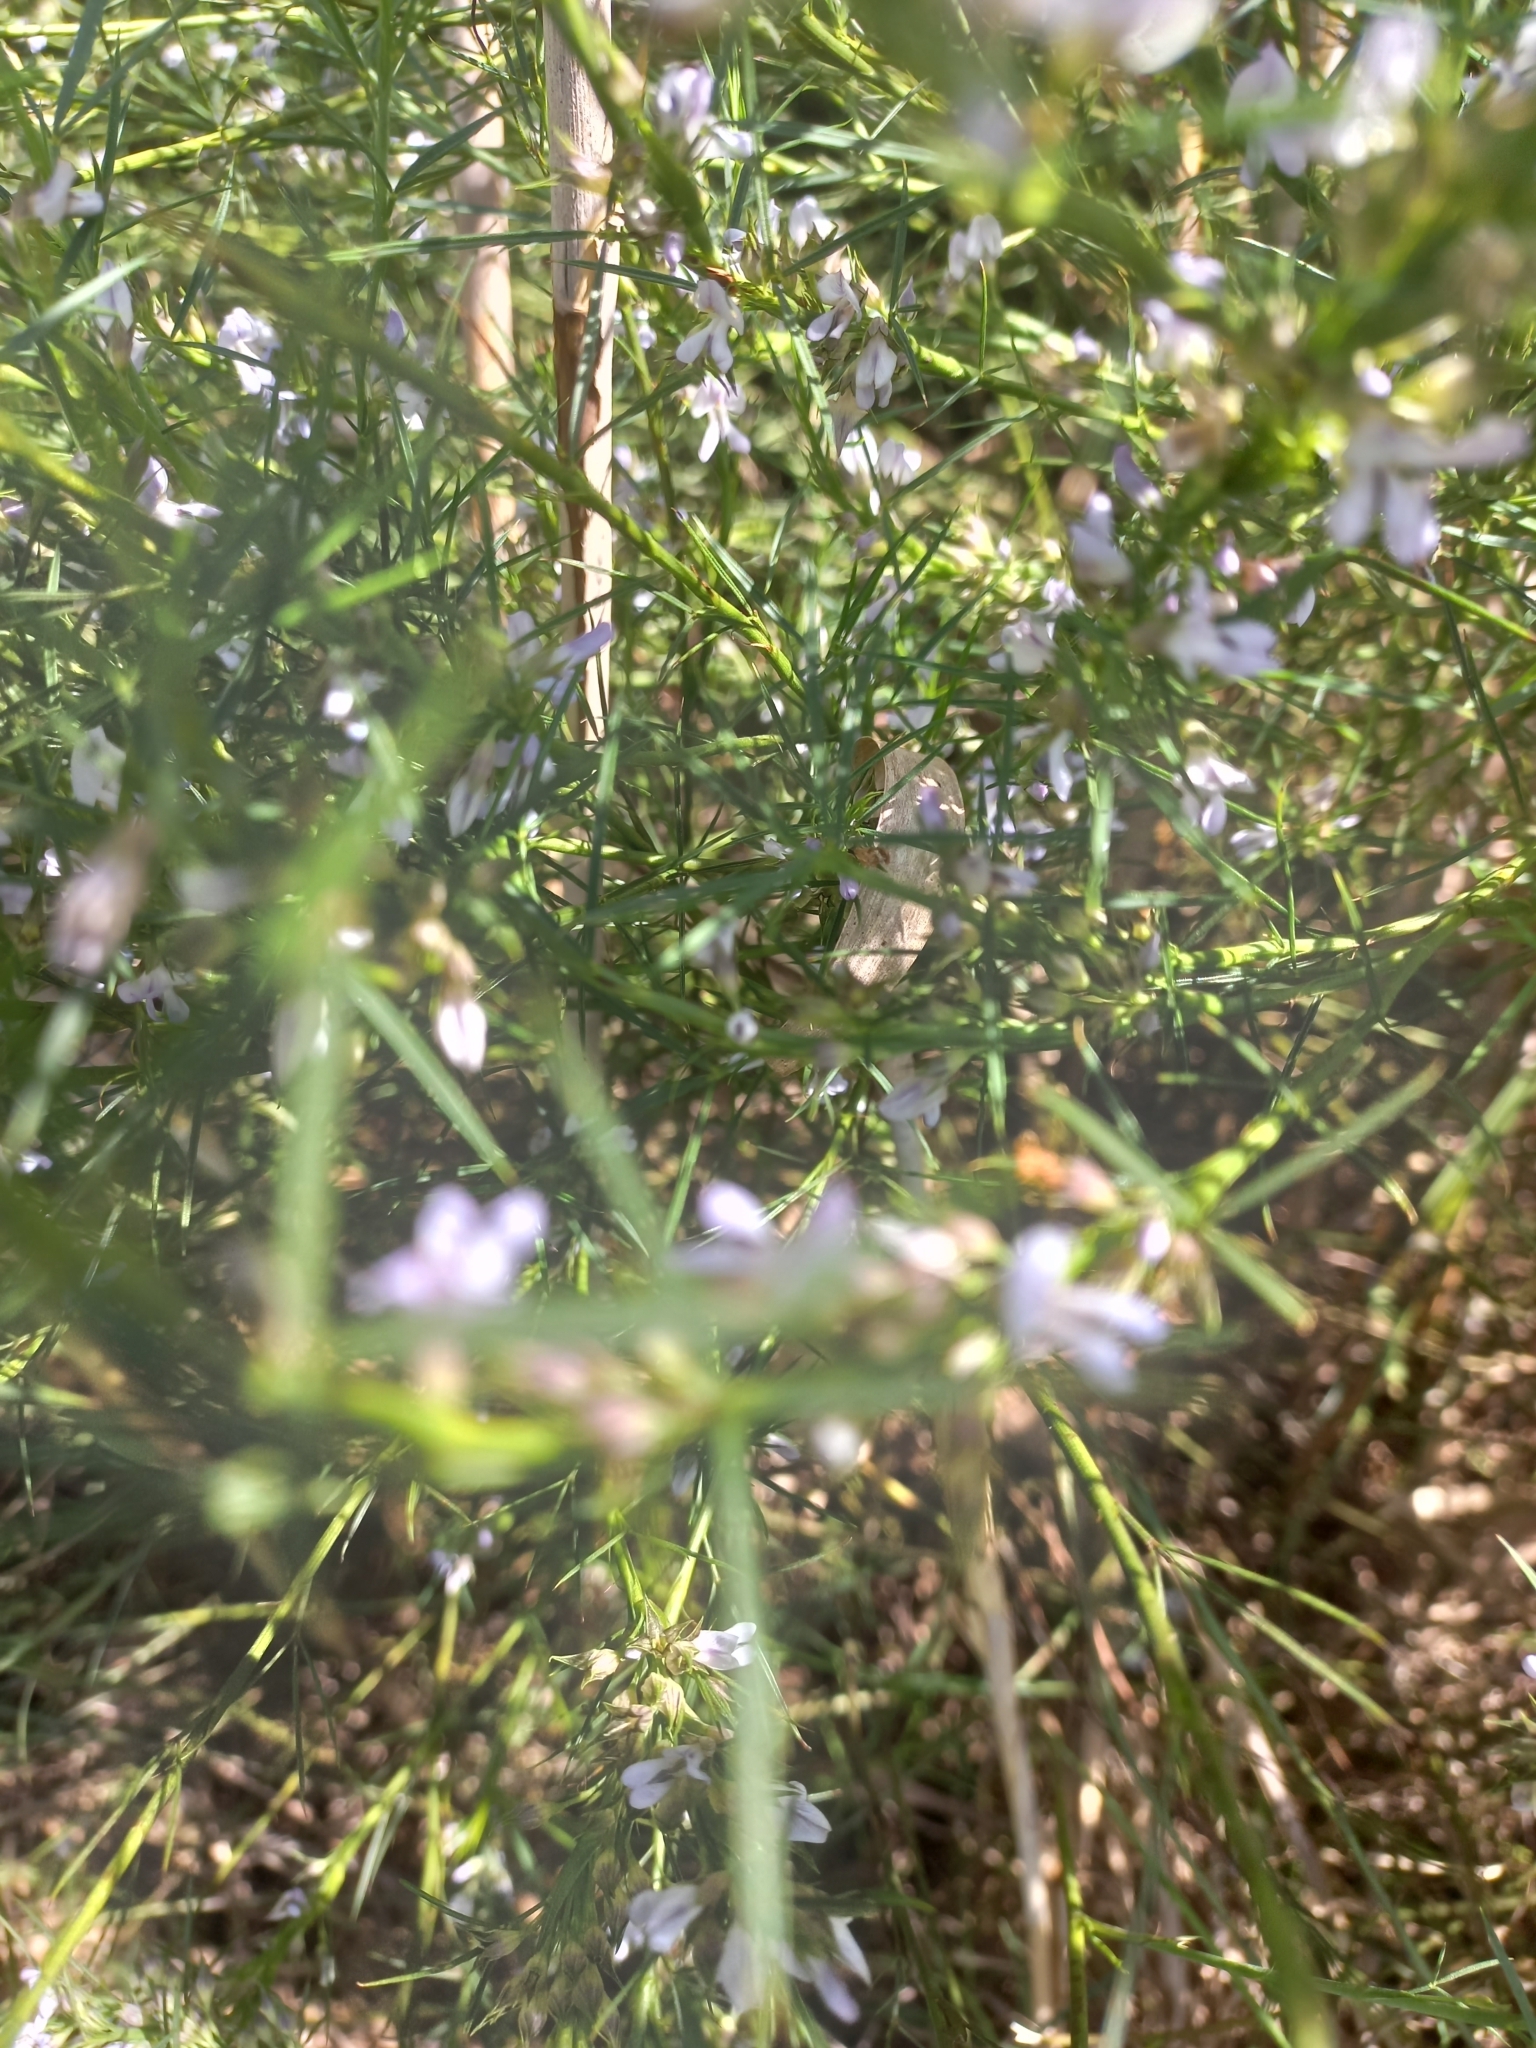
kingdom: Plantae
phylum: Tracheophyta
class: Magnoliopsida
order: Fabales
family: Fabaceae
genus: Psoralea
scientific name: Psoralea fascicularis
